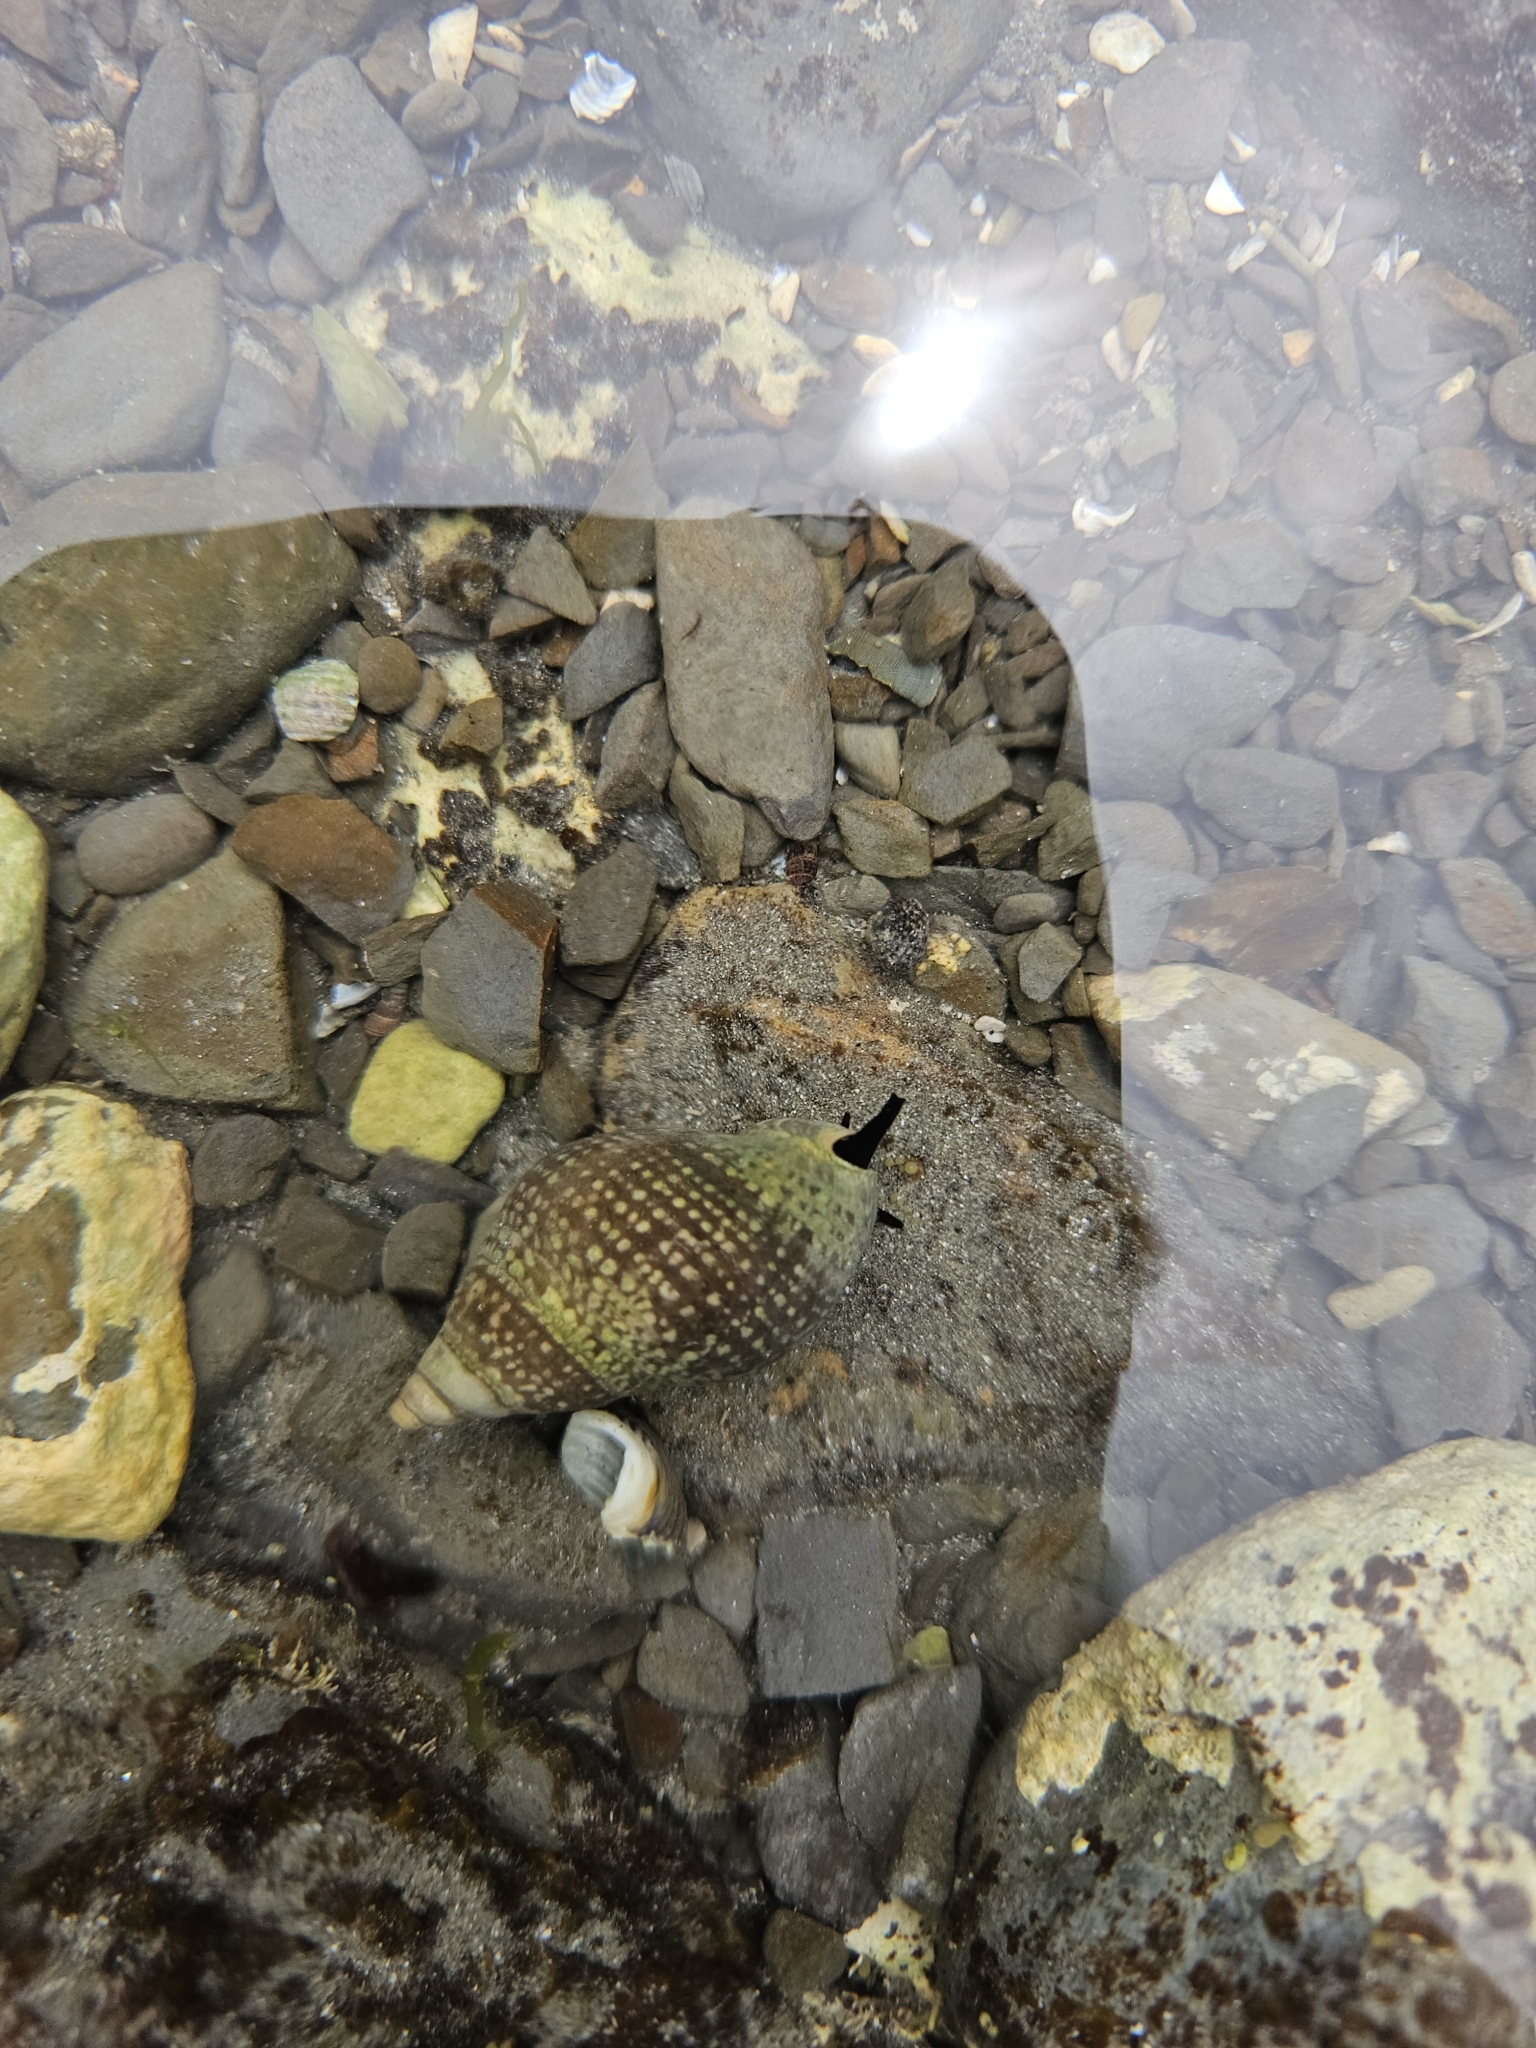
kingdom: Animalia
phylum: Mollusca
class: Gastropoda
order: Neogastropoda
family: Cominellidae
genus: Cominella
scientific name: Cominella maculosa
